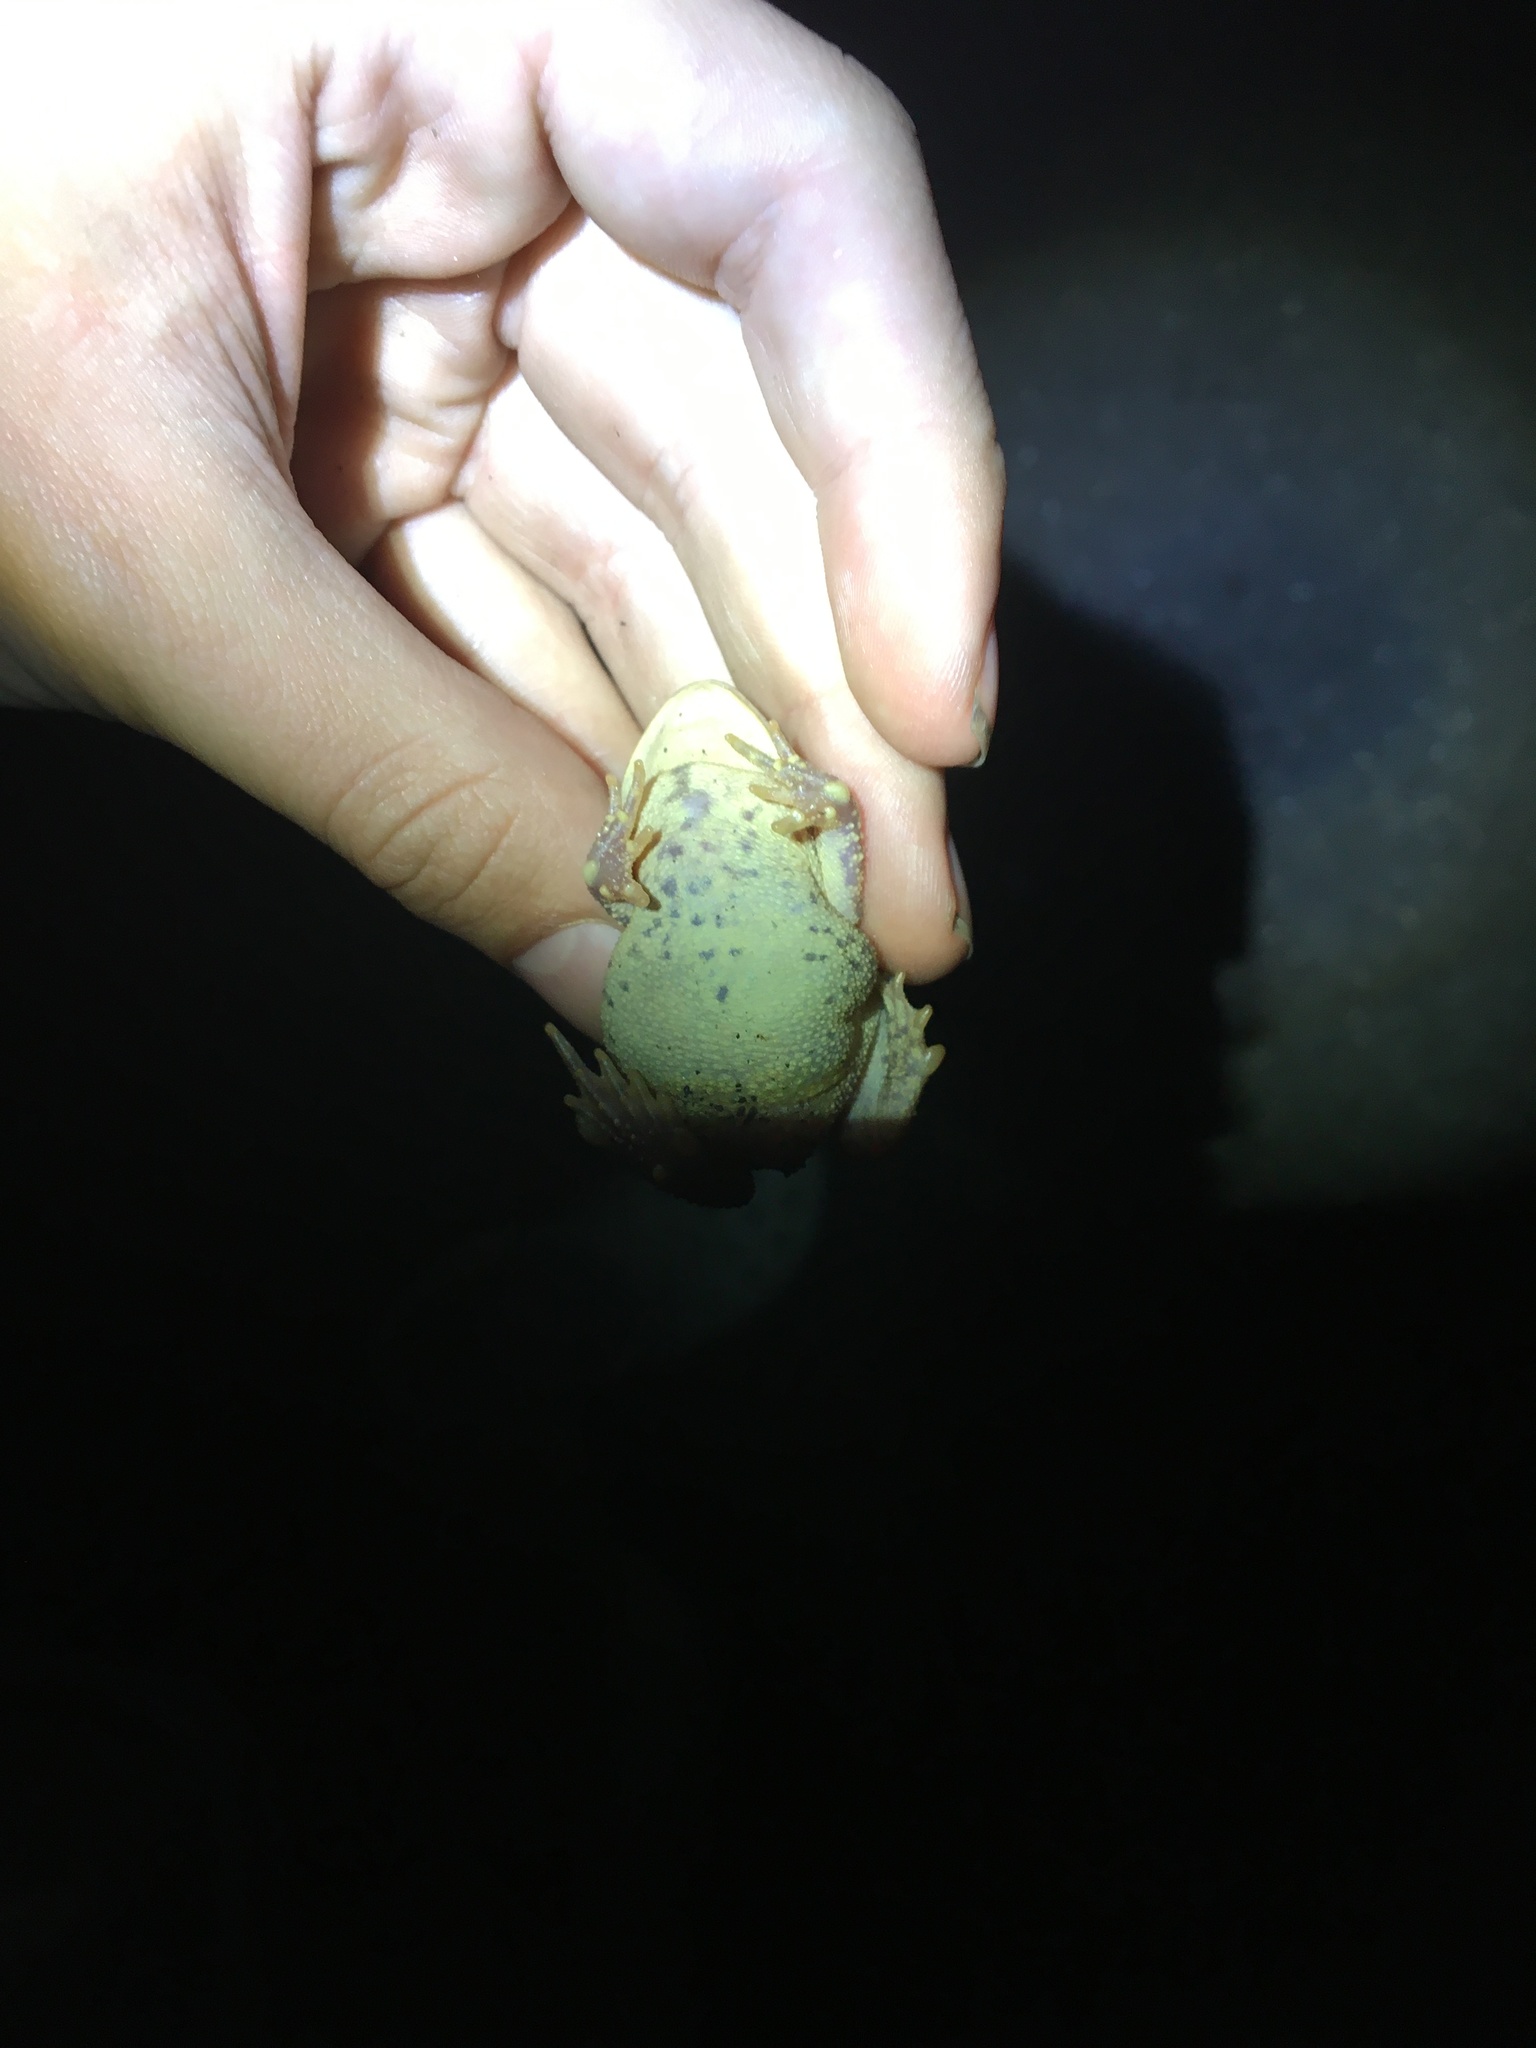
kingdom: Animalia
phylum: Chordata
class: Amphibia
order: Anura
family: Bufonidae
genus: Anaxyrus
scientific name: Anaxyrus americanus
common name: American toad
